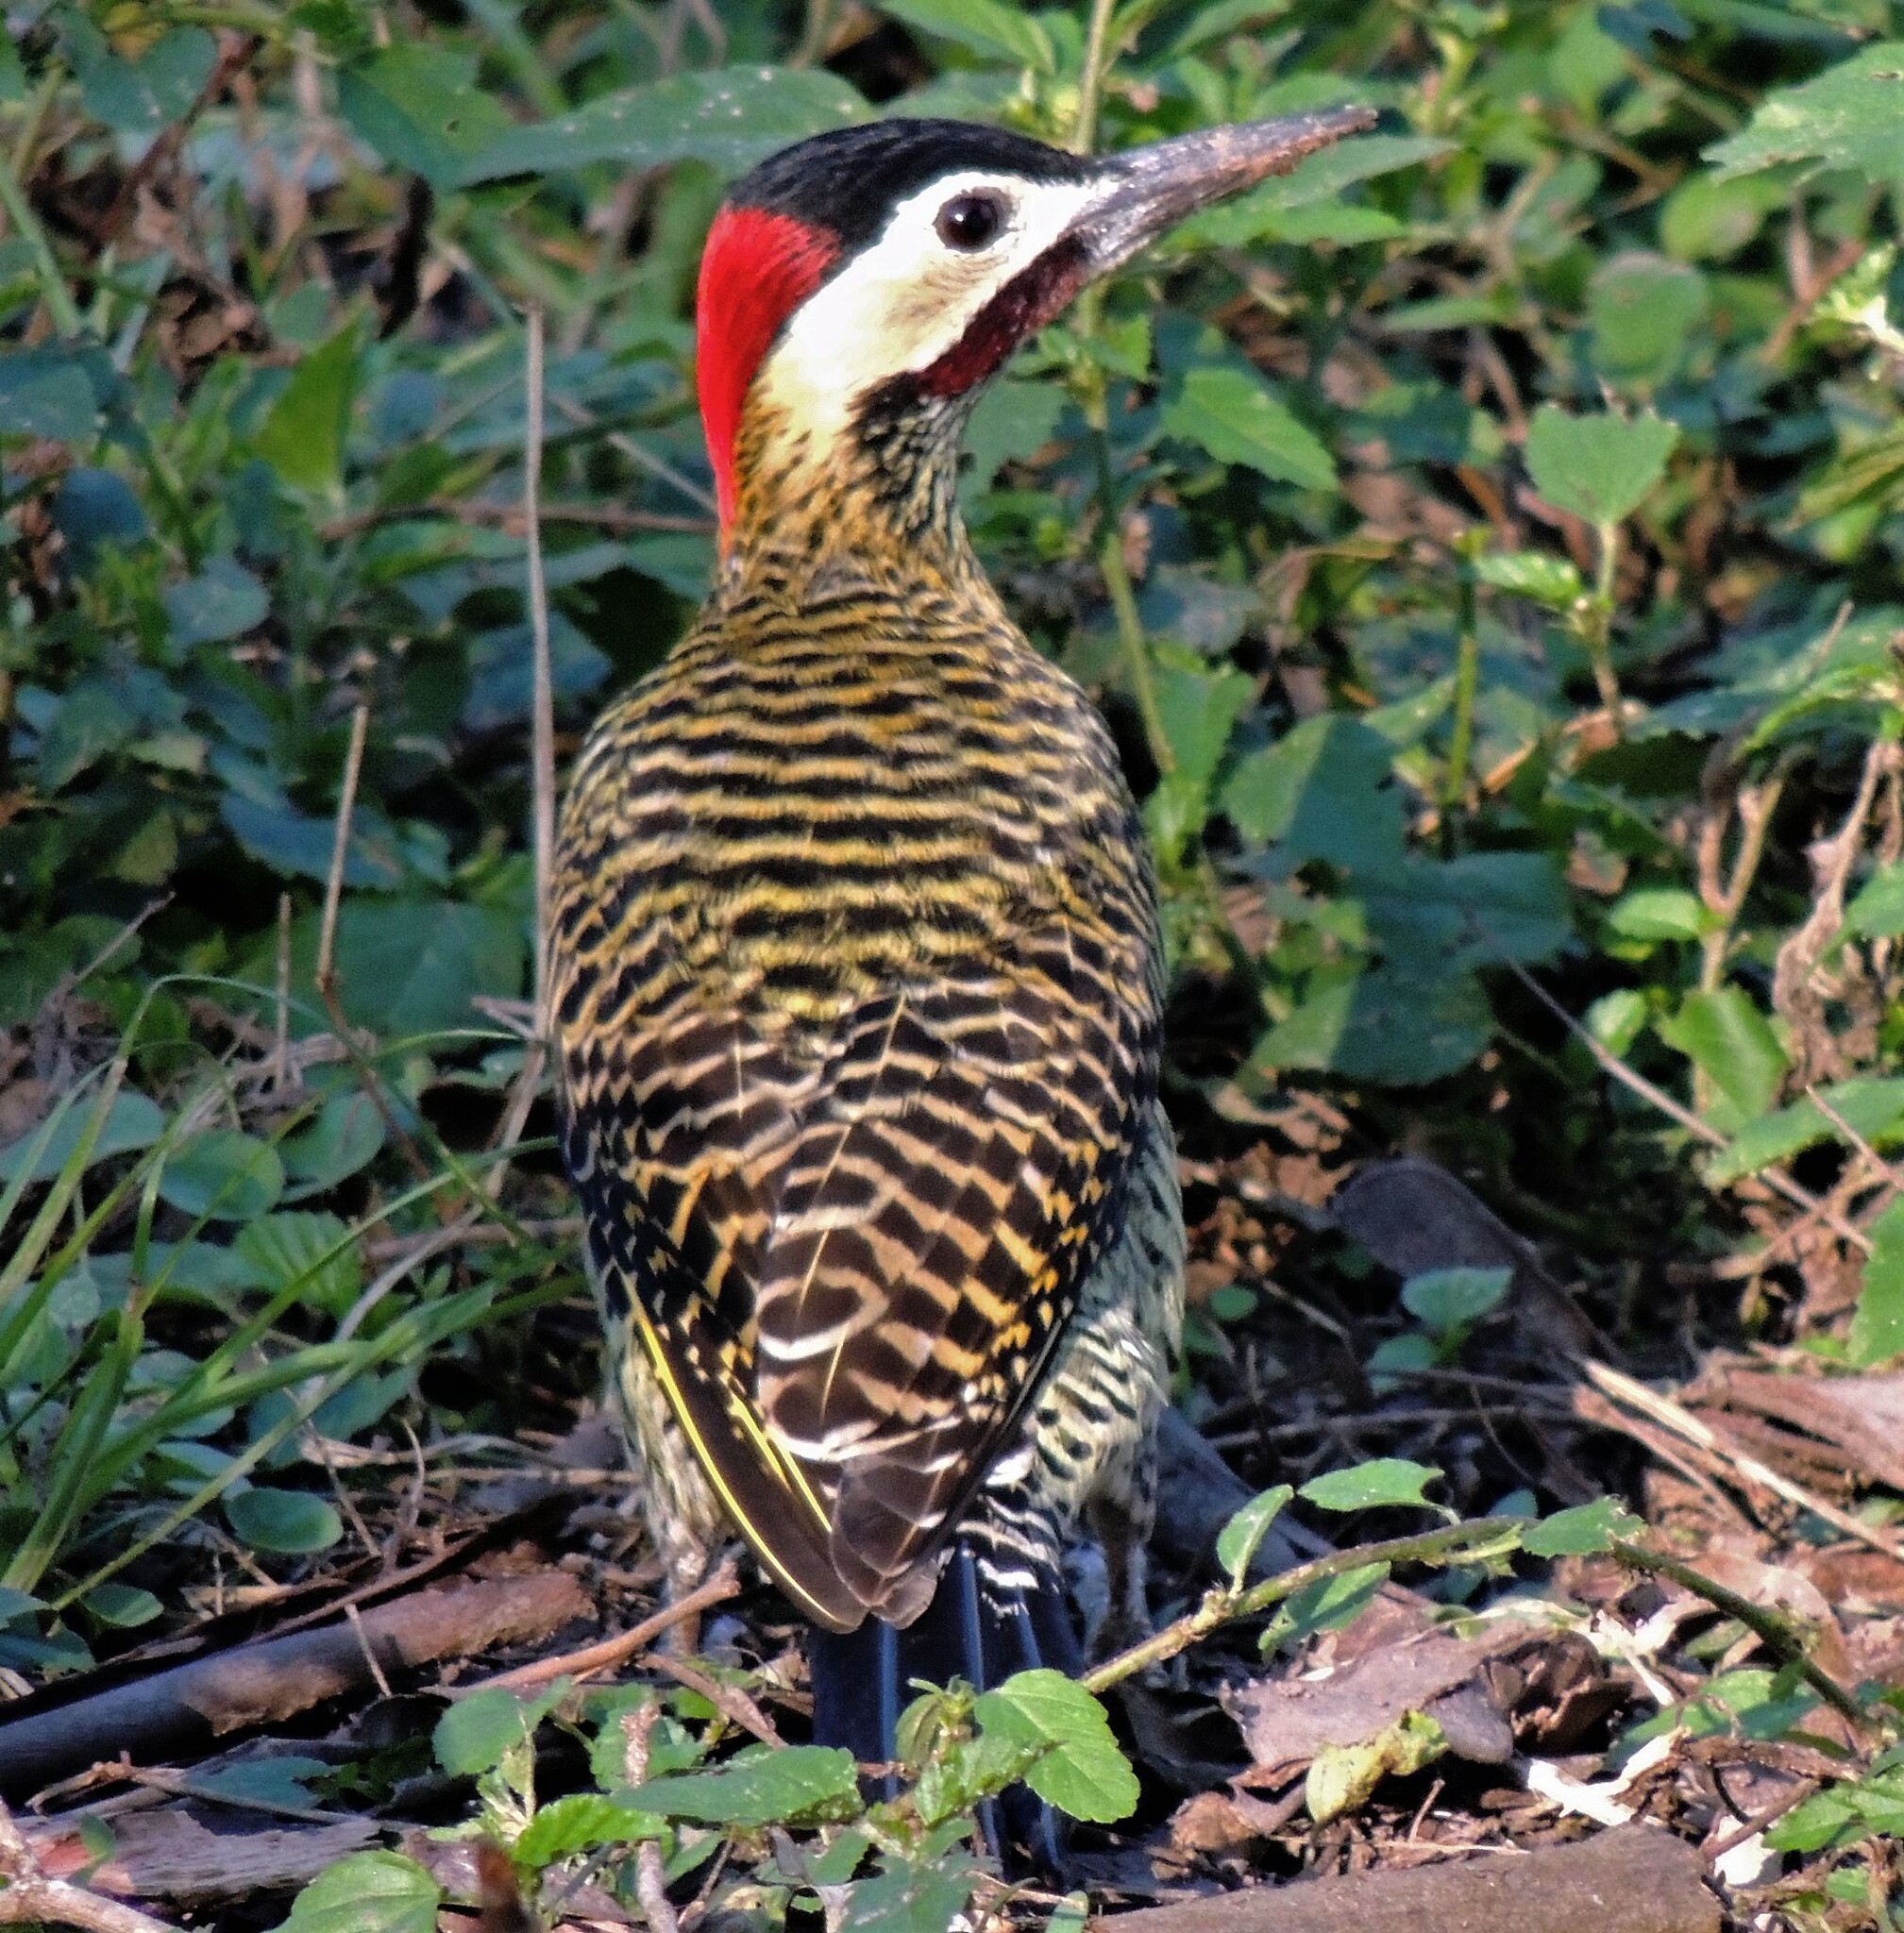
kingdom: Animalia
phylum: Chordata
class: Aves
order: Piciformes
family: Picidae
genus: Colaptes
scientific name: Colaptes melanochloros
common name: Green-barred woodpecker
